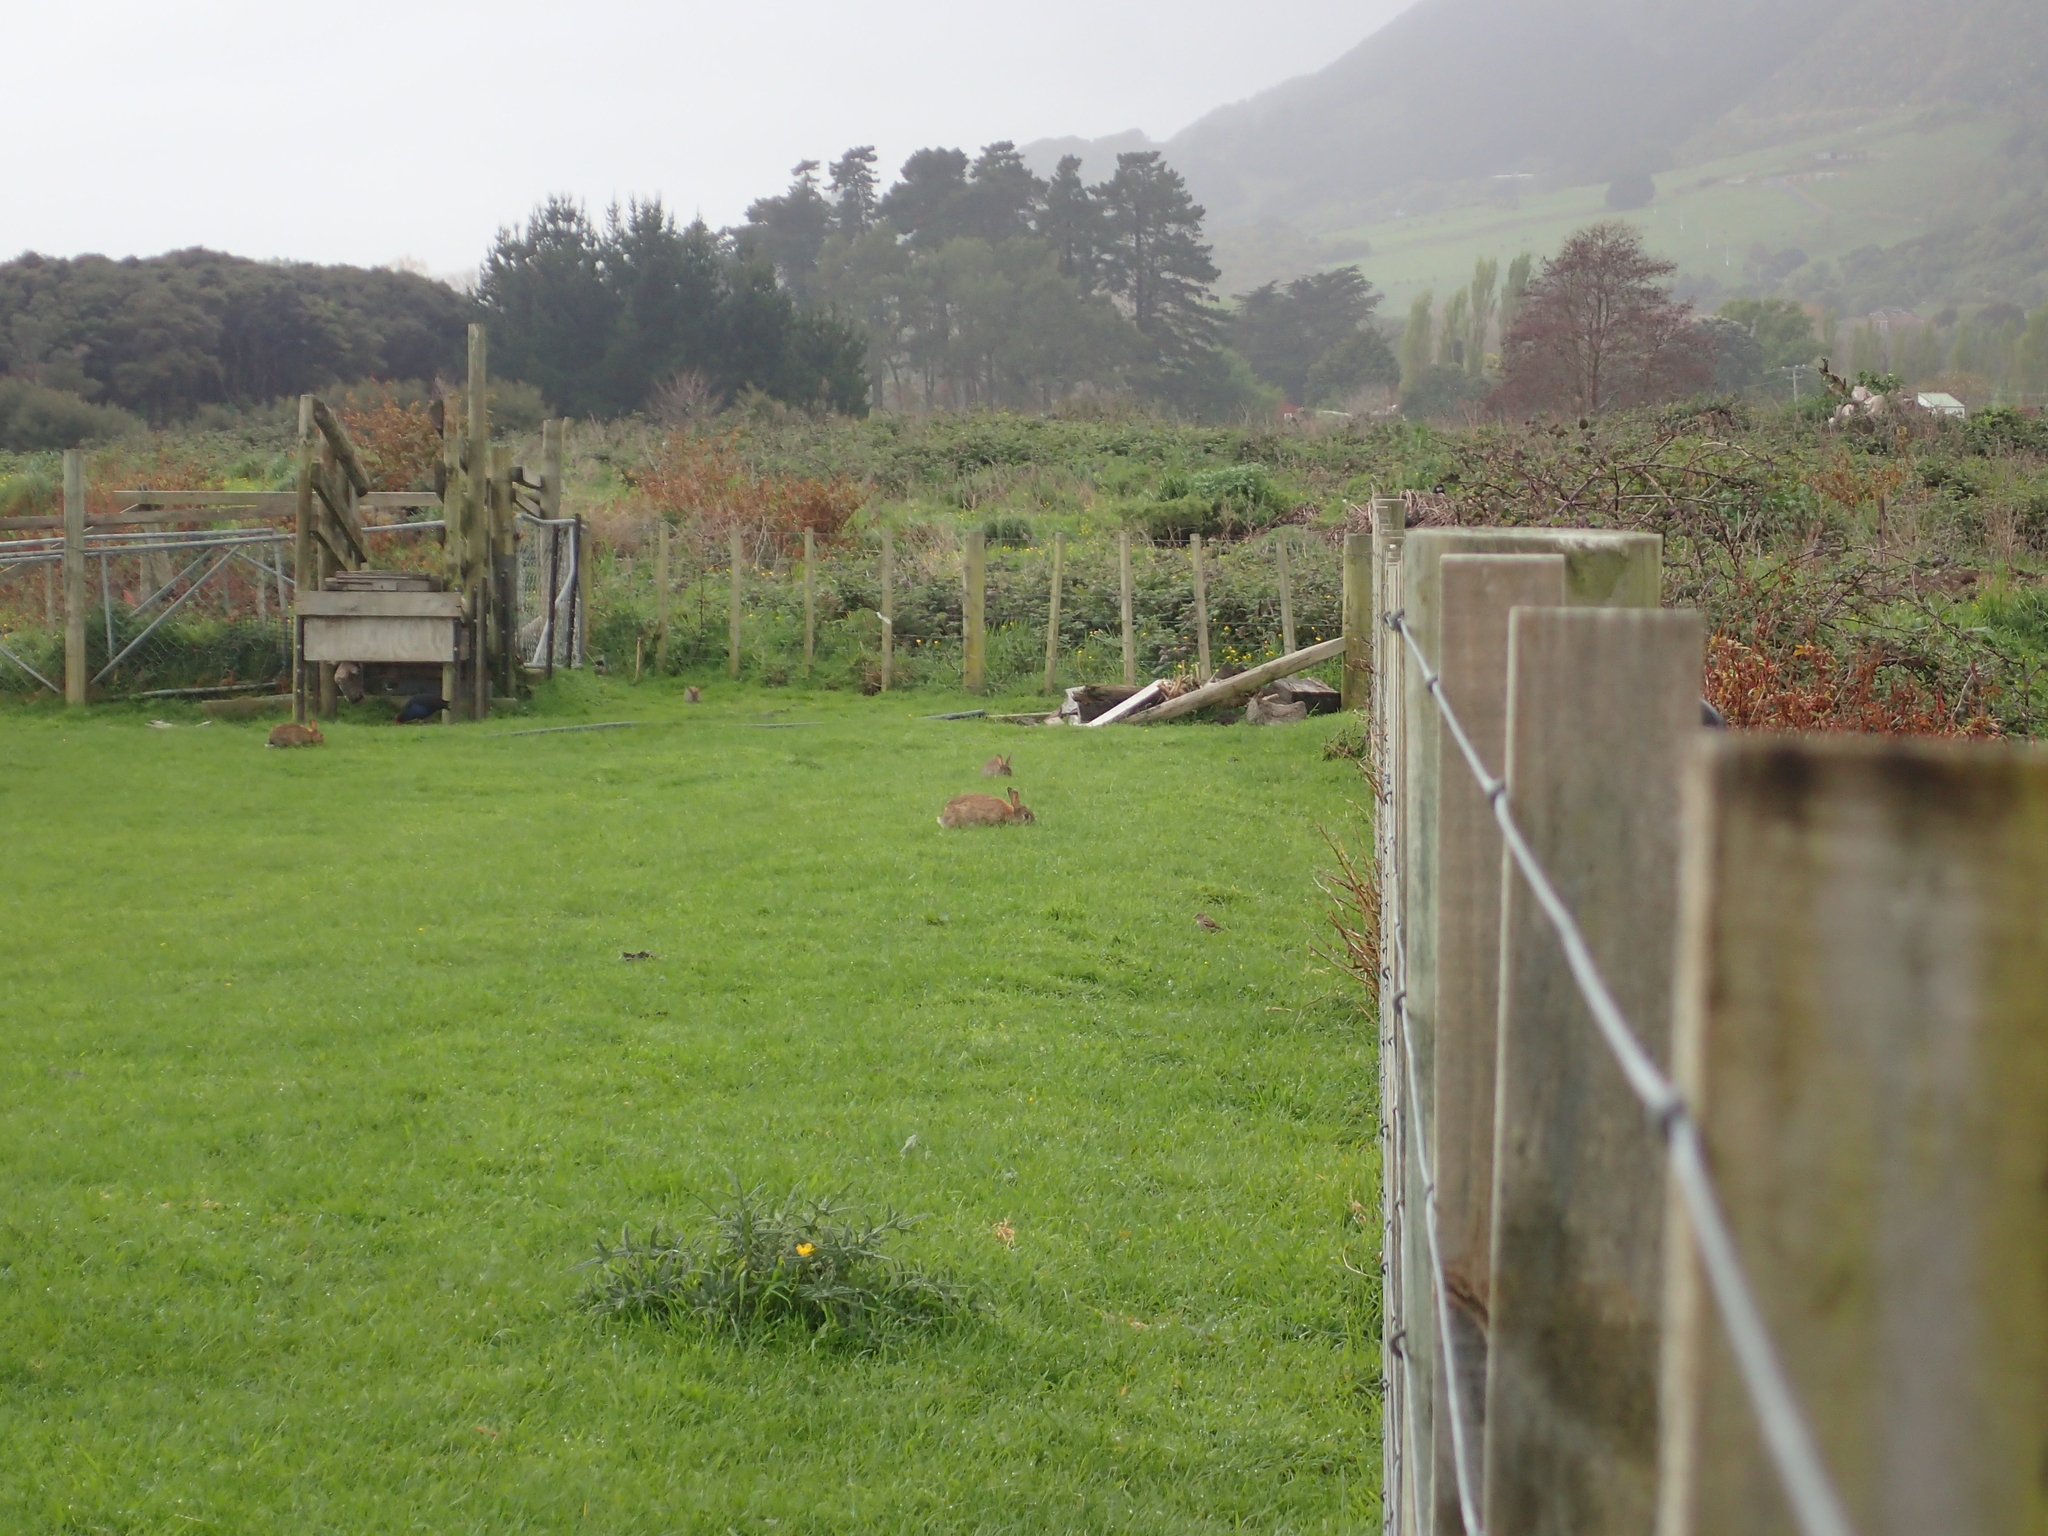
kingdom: Animalia
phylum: Chordata
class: Mammalia
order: Lagomorpha
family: Leporidae
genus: Oryctolagus
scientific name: Oryctolagus cuniculus
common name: European rabbit
